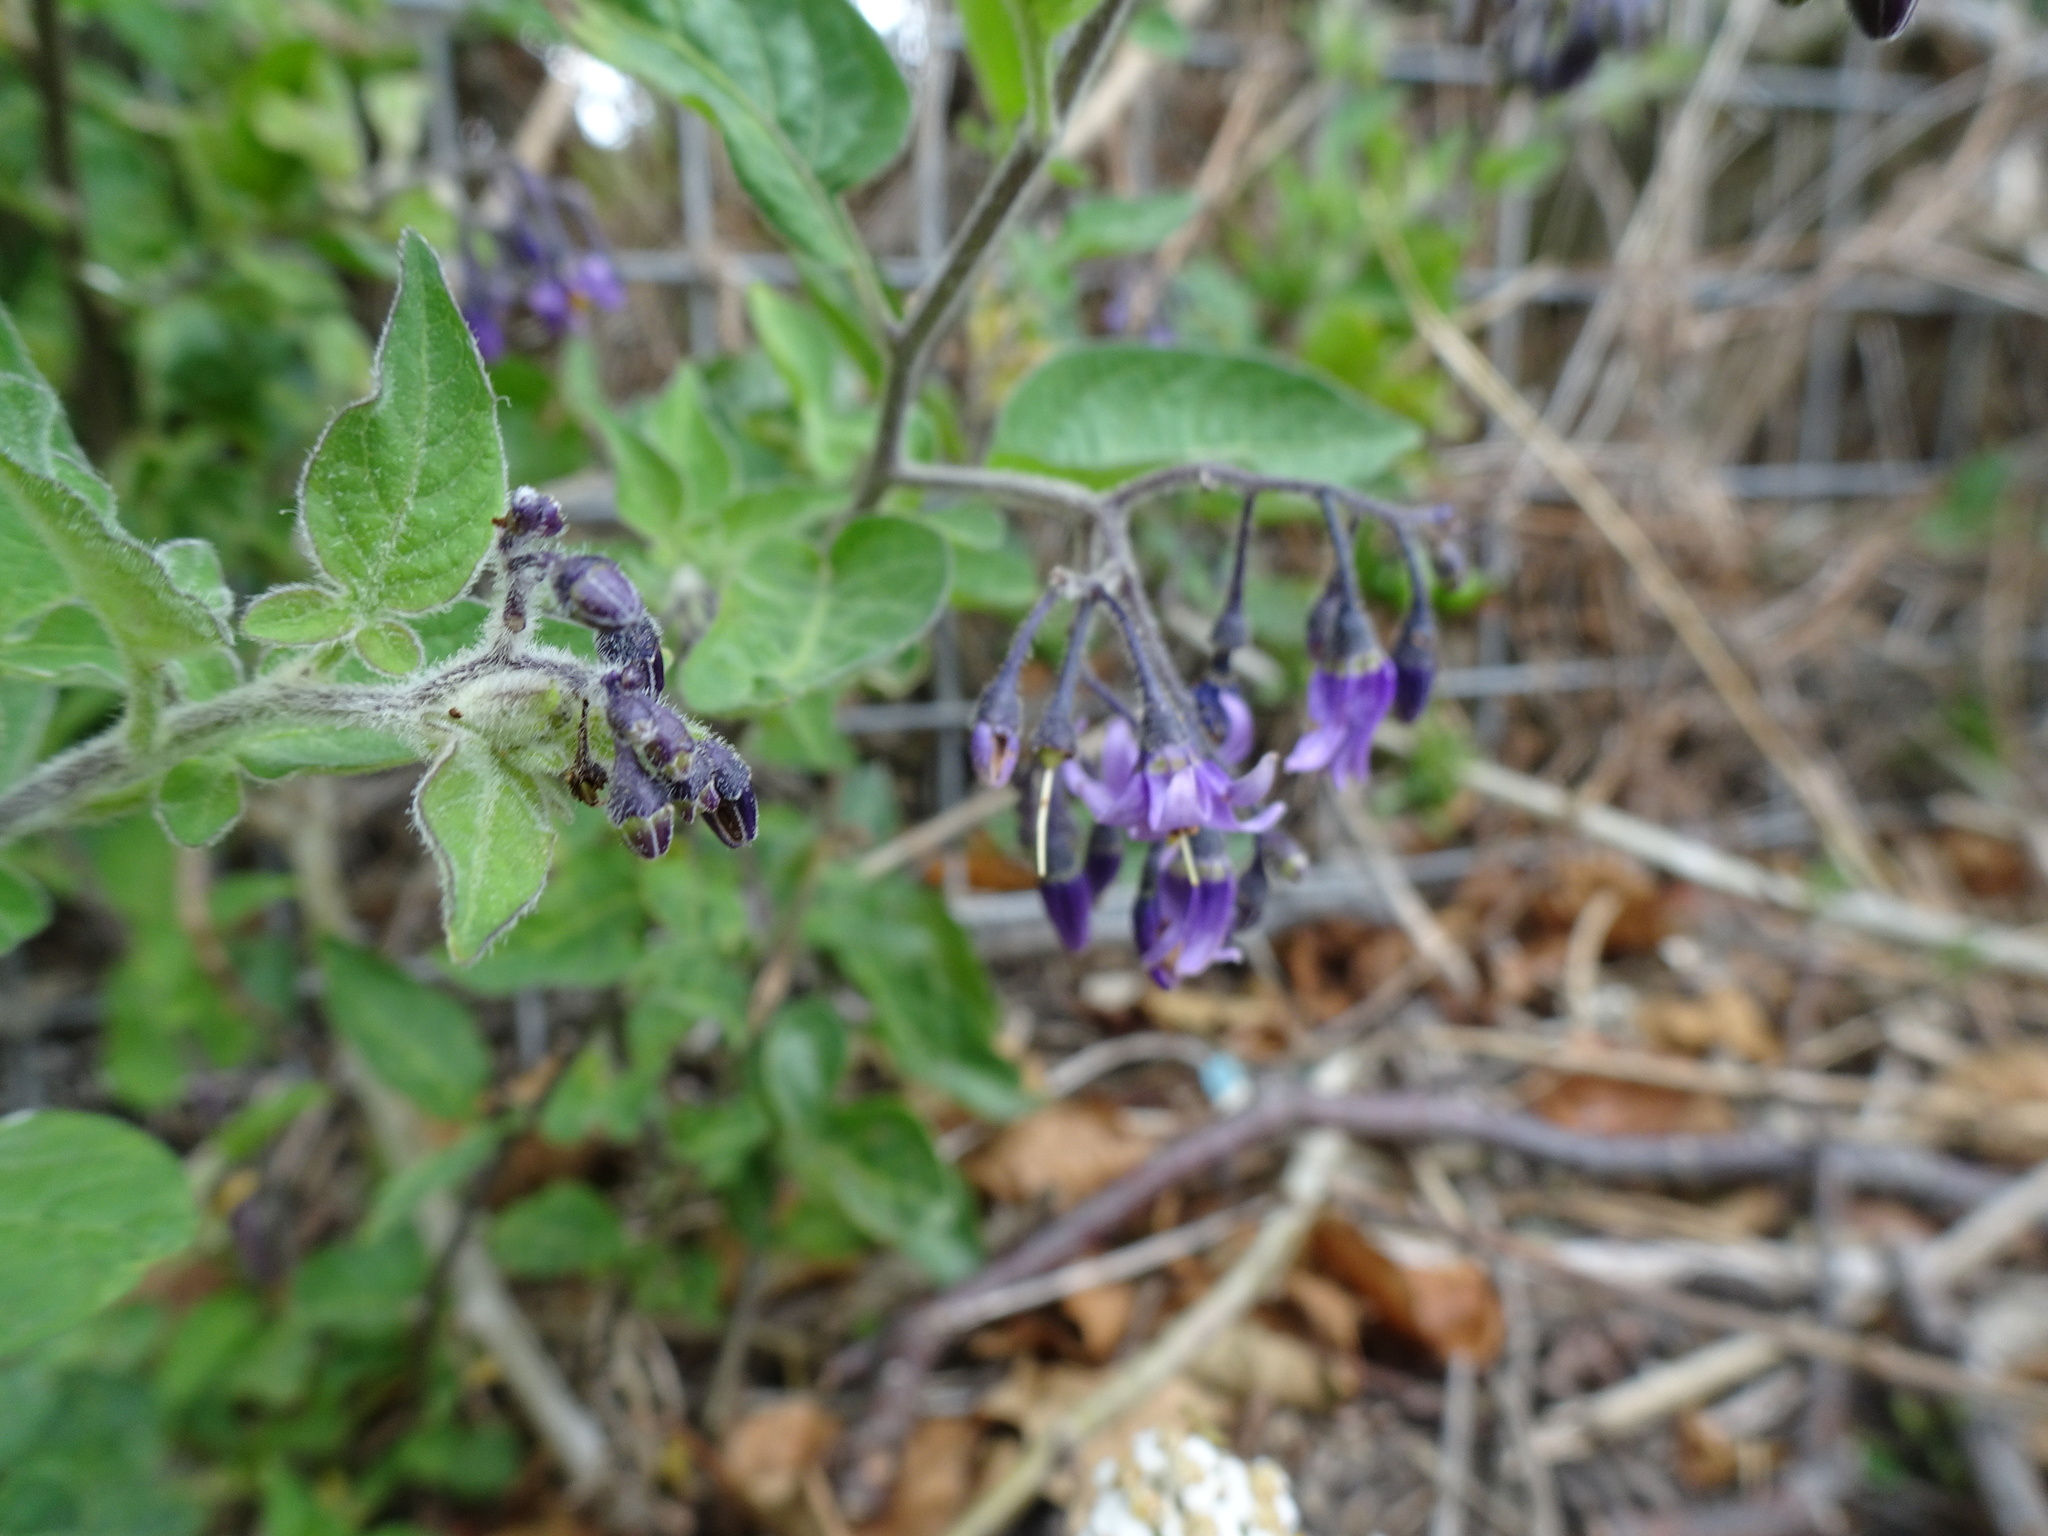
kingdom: Plantae
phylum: Tracheophyta
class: Magnoliopsida
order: Solanales
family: Solanaceae
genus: Solanum
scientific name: Solanum dulcamara
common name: Climbing nightshade
